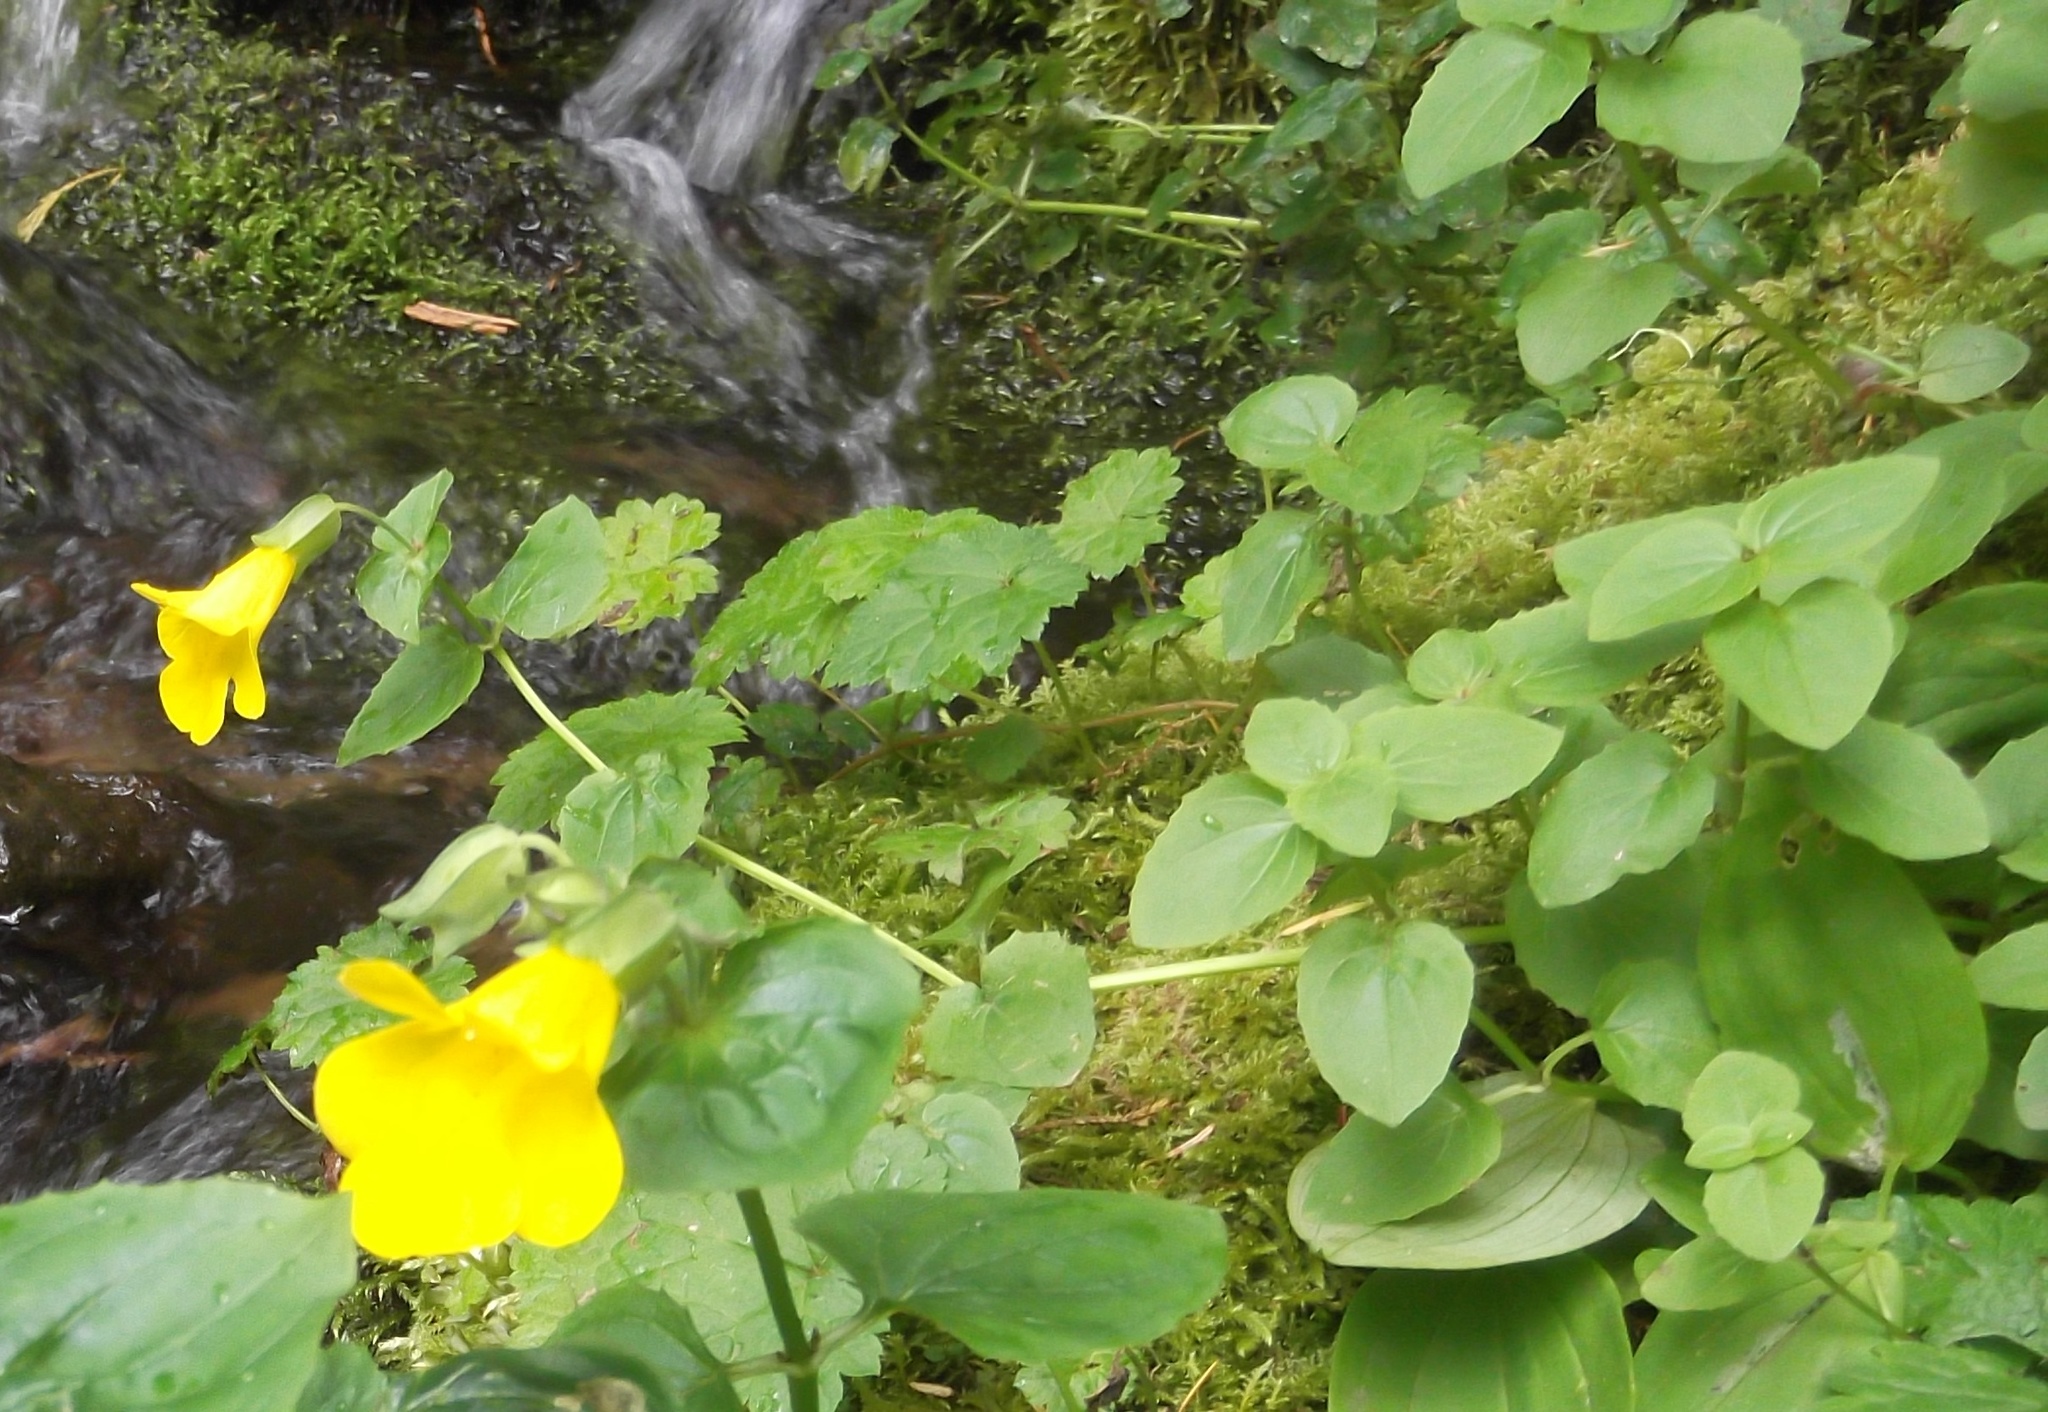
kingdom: Plantae
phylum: Tracheophyta
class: Magnoliopsida
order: Lamiales
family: Phrymaceae
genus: Erythranthe
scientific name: Erythranthe decora
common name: Mannered monkeyflower
